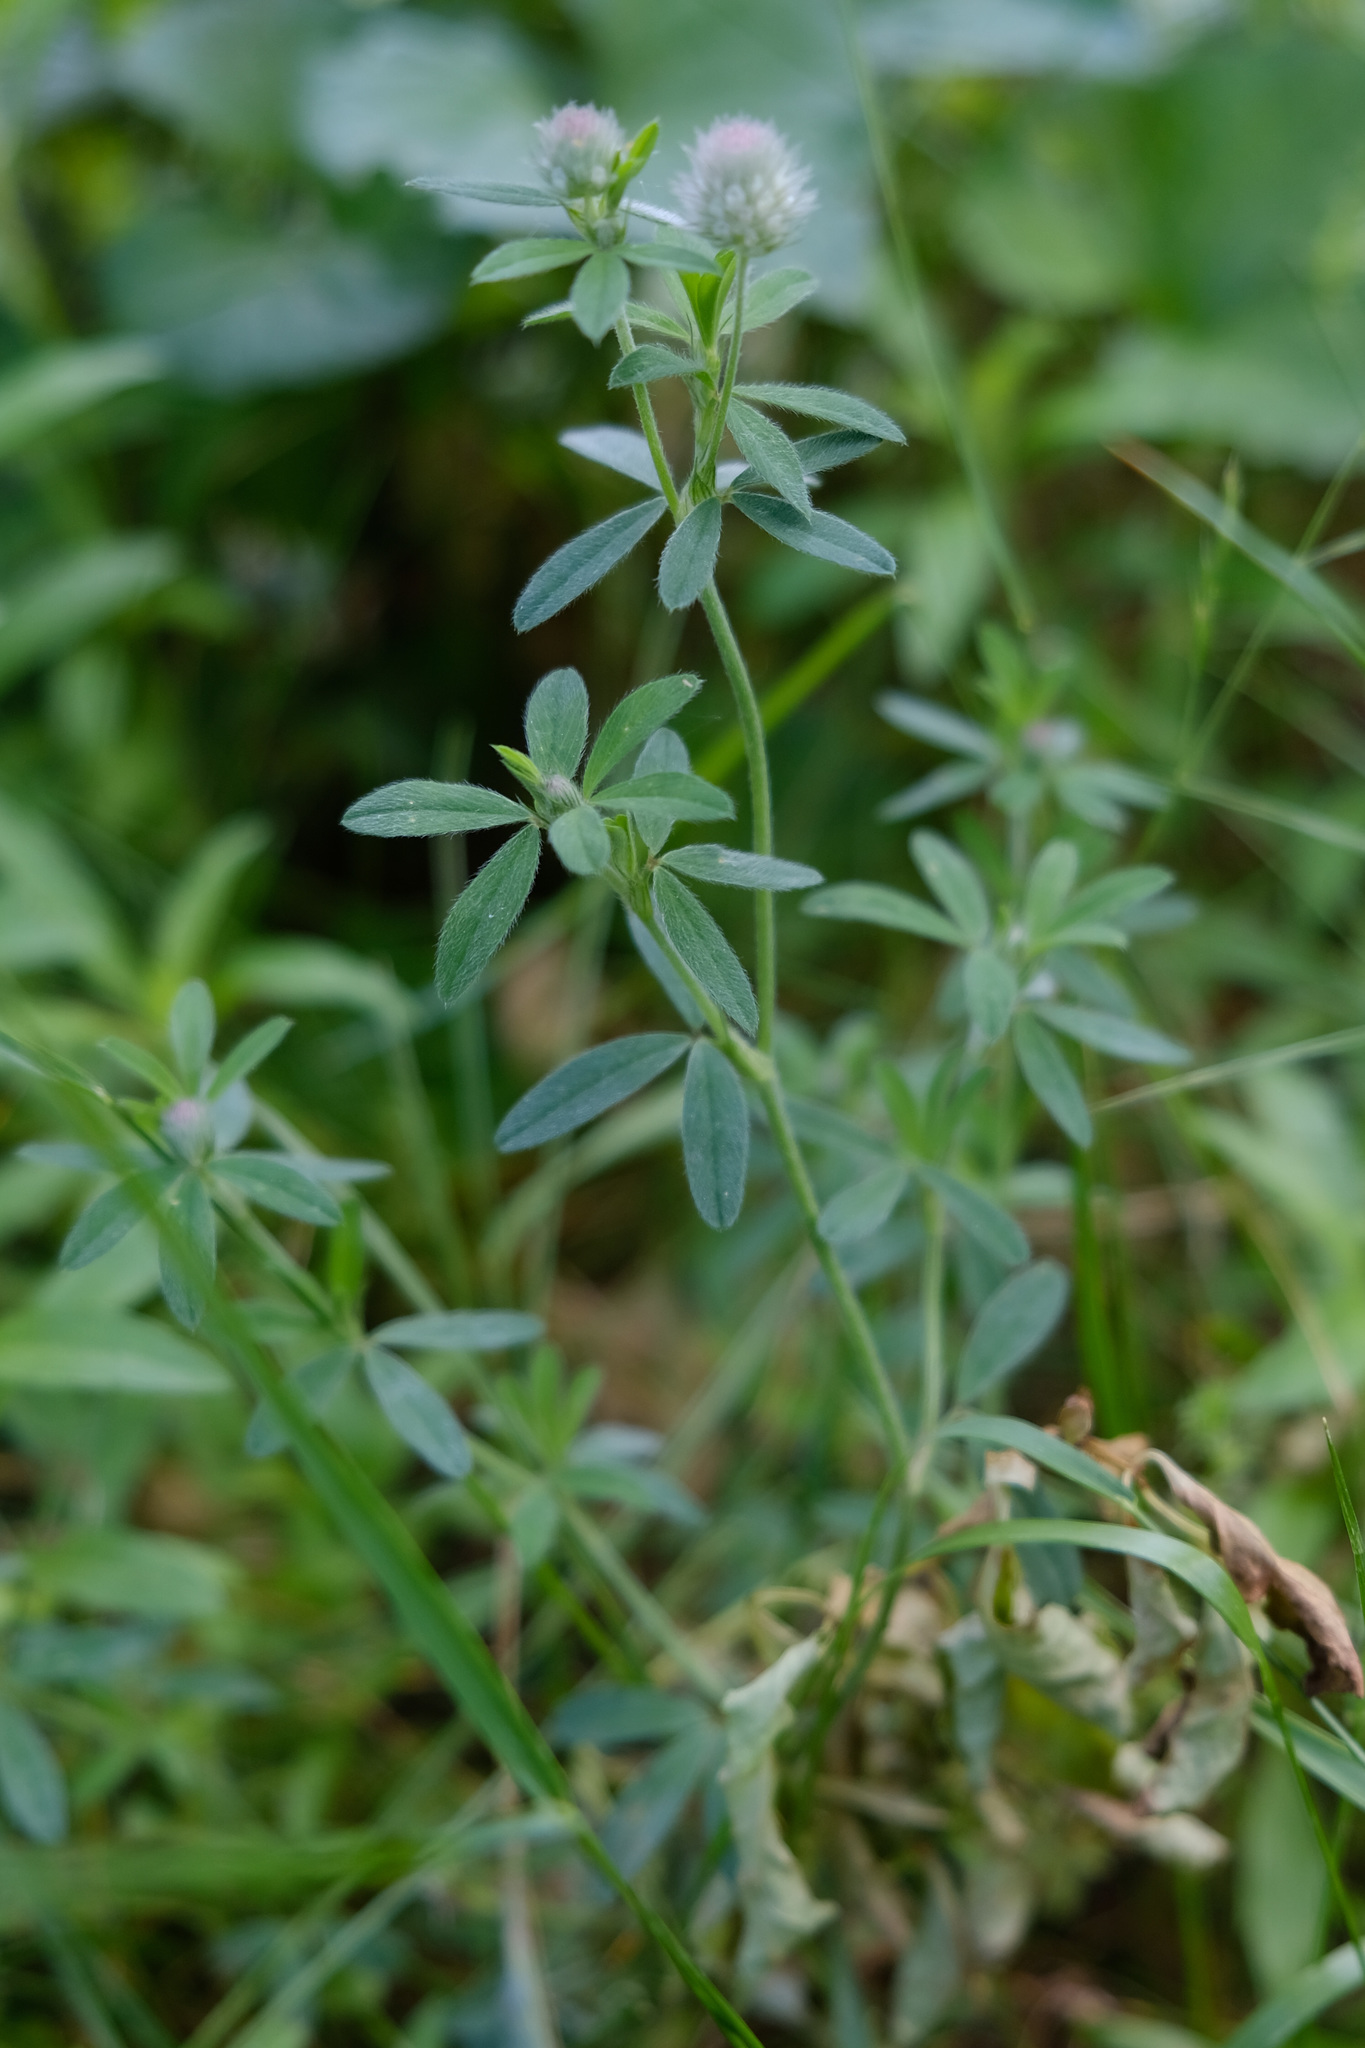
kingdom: Plantae
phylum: Tracheophyta
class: Magnoliopsida
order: Fabales
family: Fabaceae
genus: Trifolium
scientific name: Trifolium arvense
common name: Hare's-foot clover
